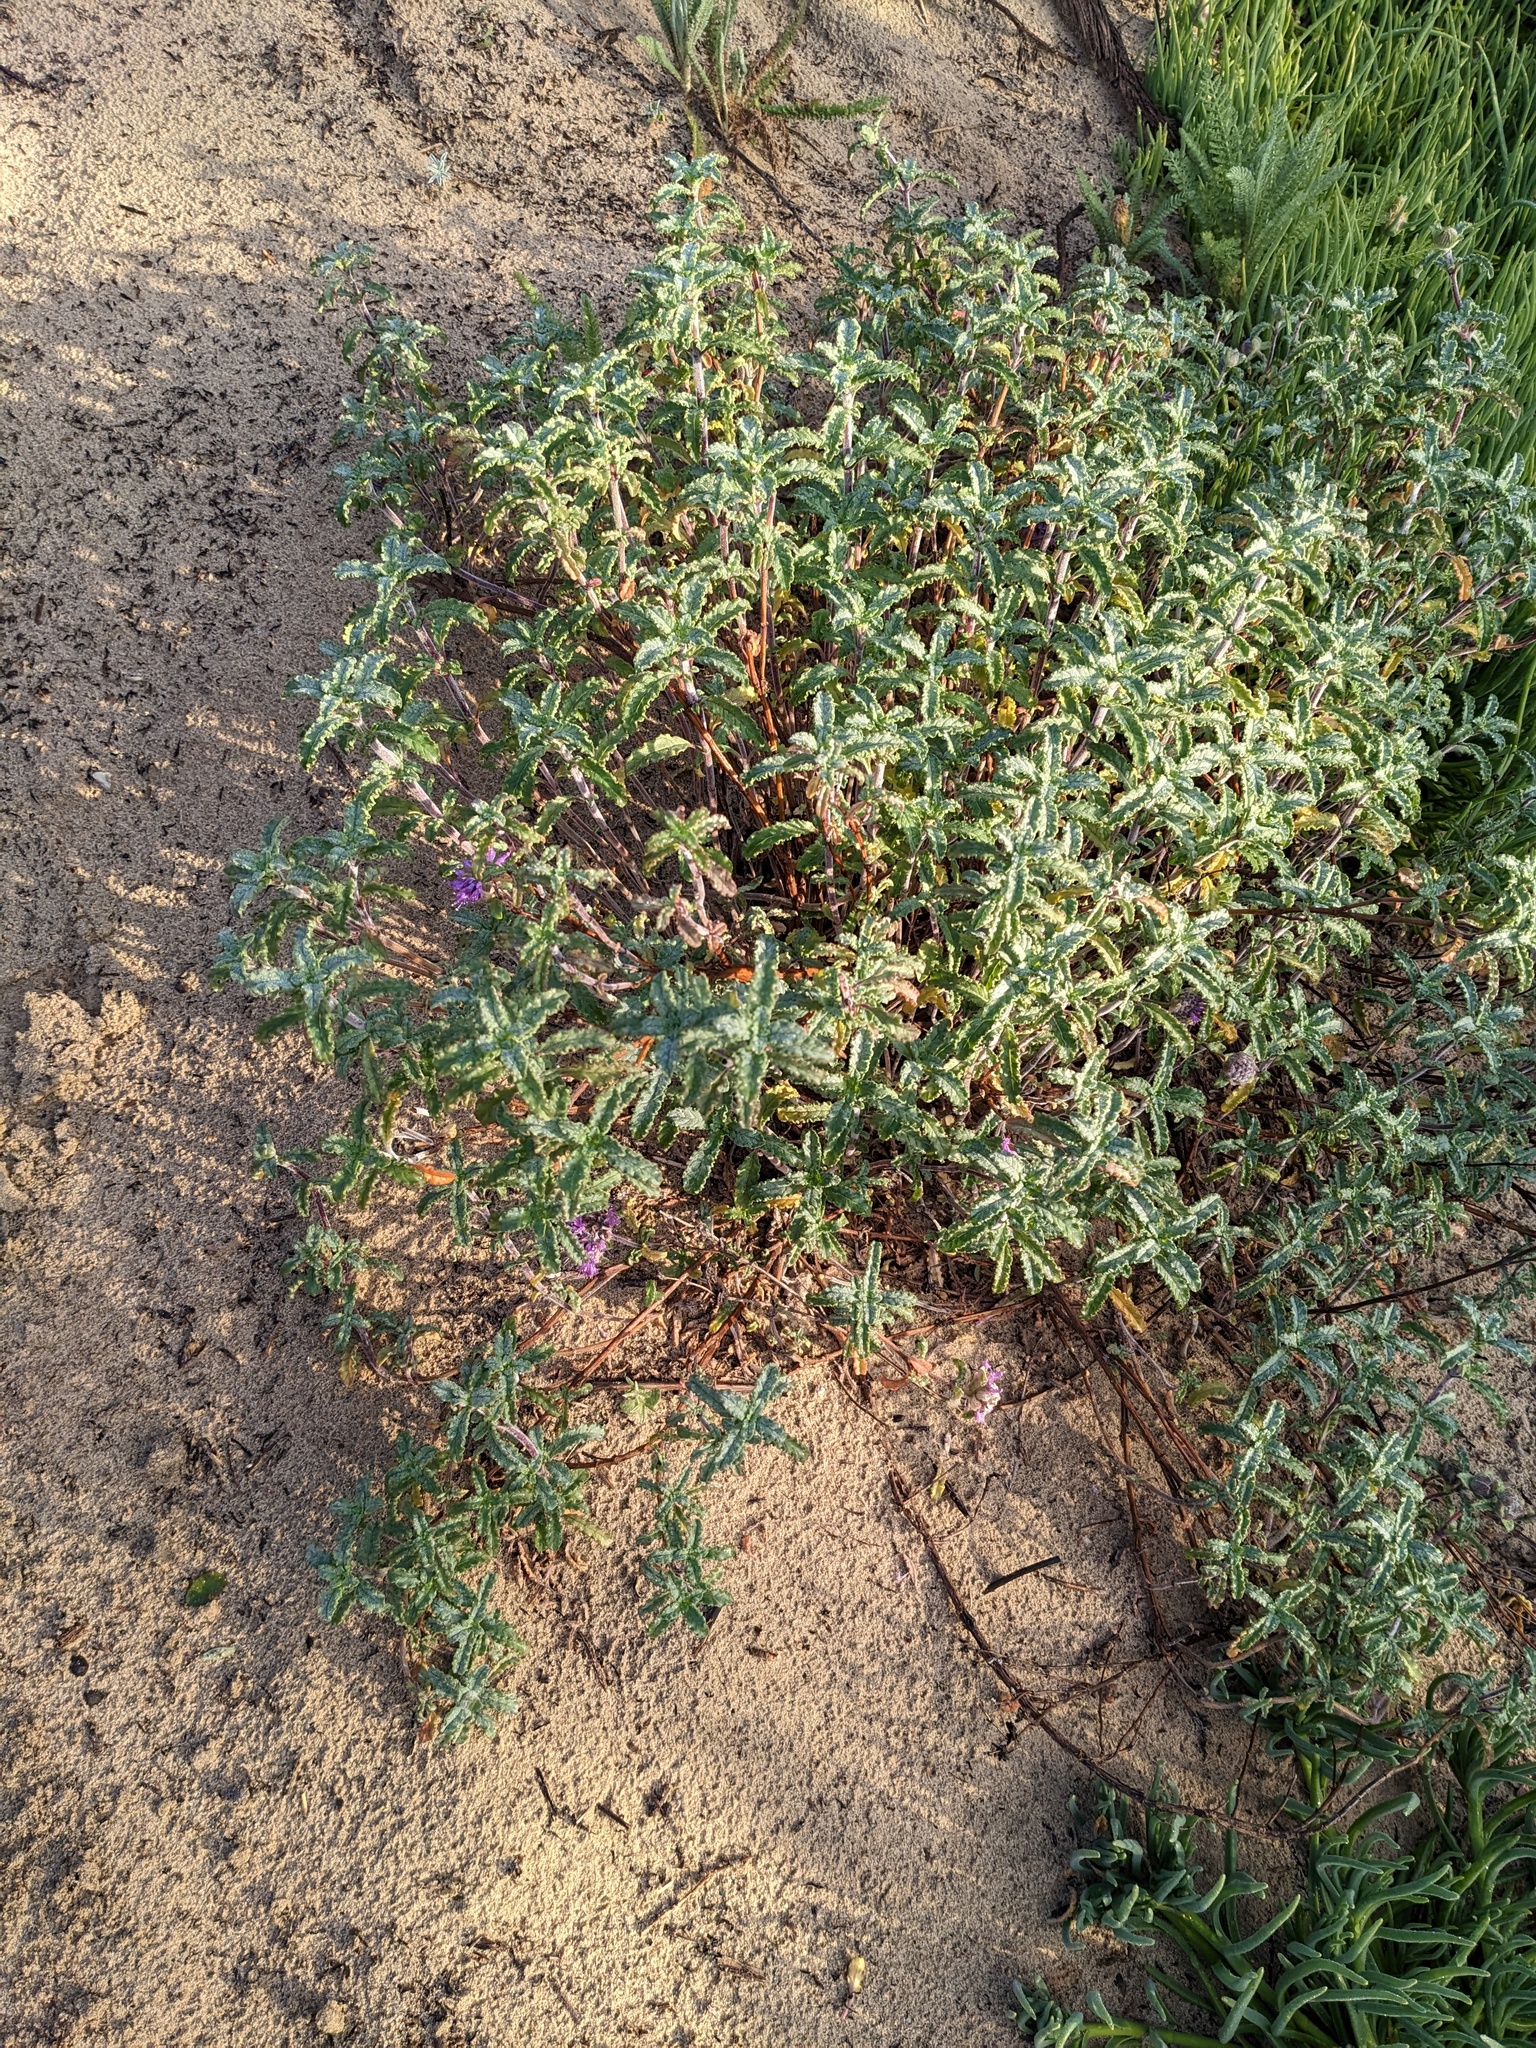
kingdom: Plantae
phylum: Tracheophyta
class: Magnoliopsida
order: Lamiales
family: Lamiaceae
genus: Monardella
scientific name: Monardella undulata
